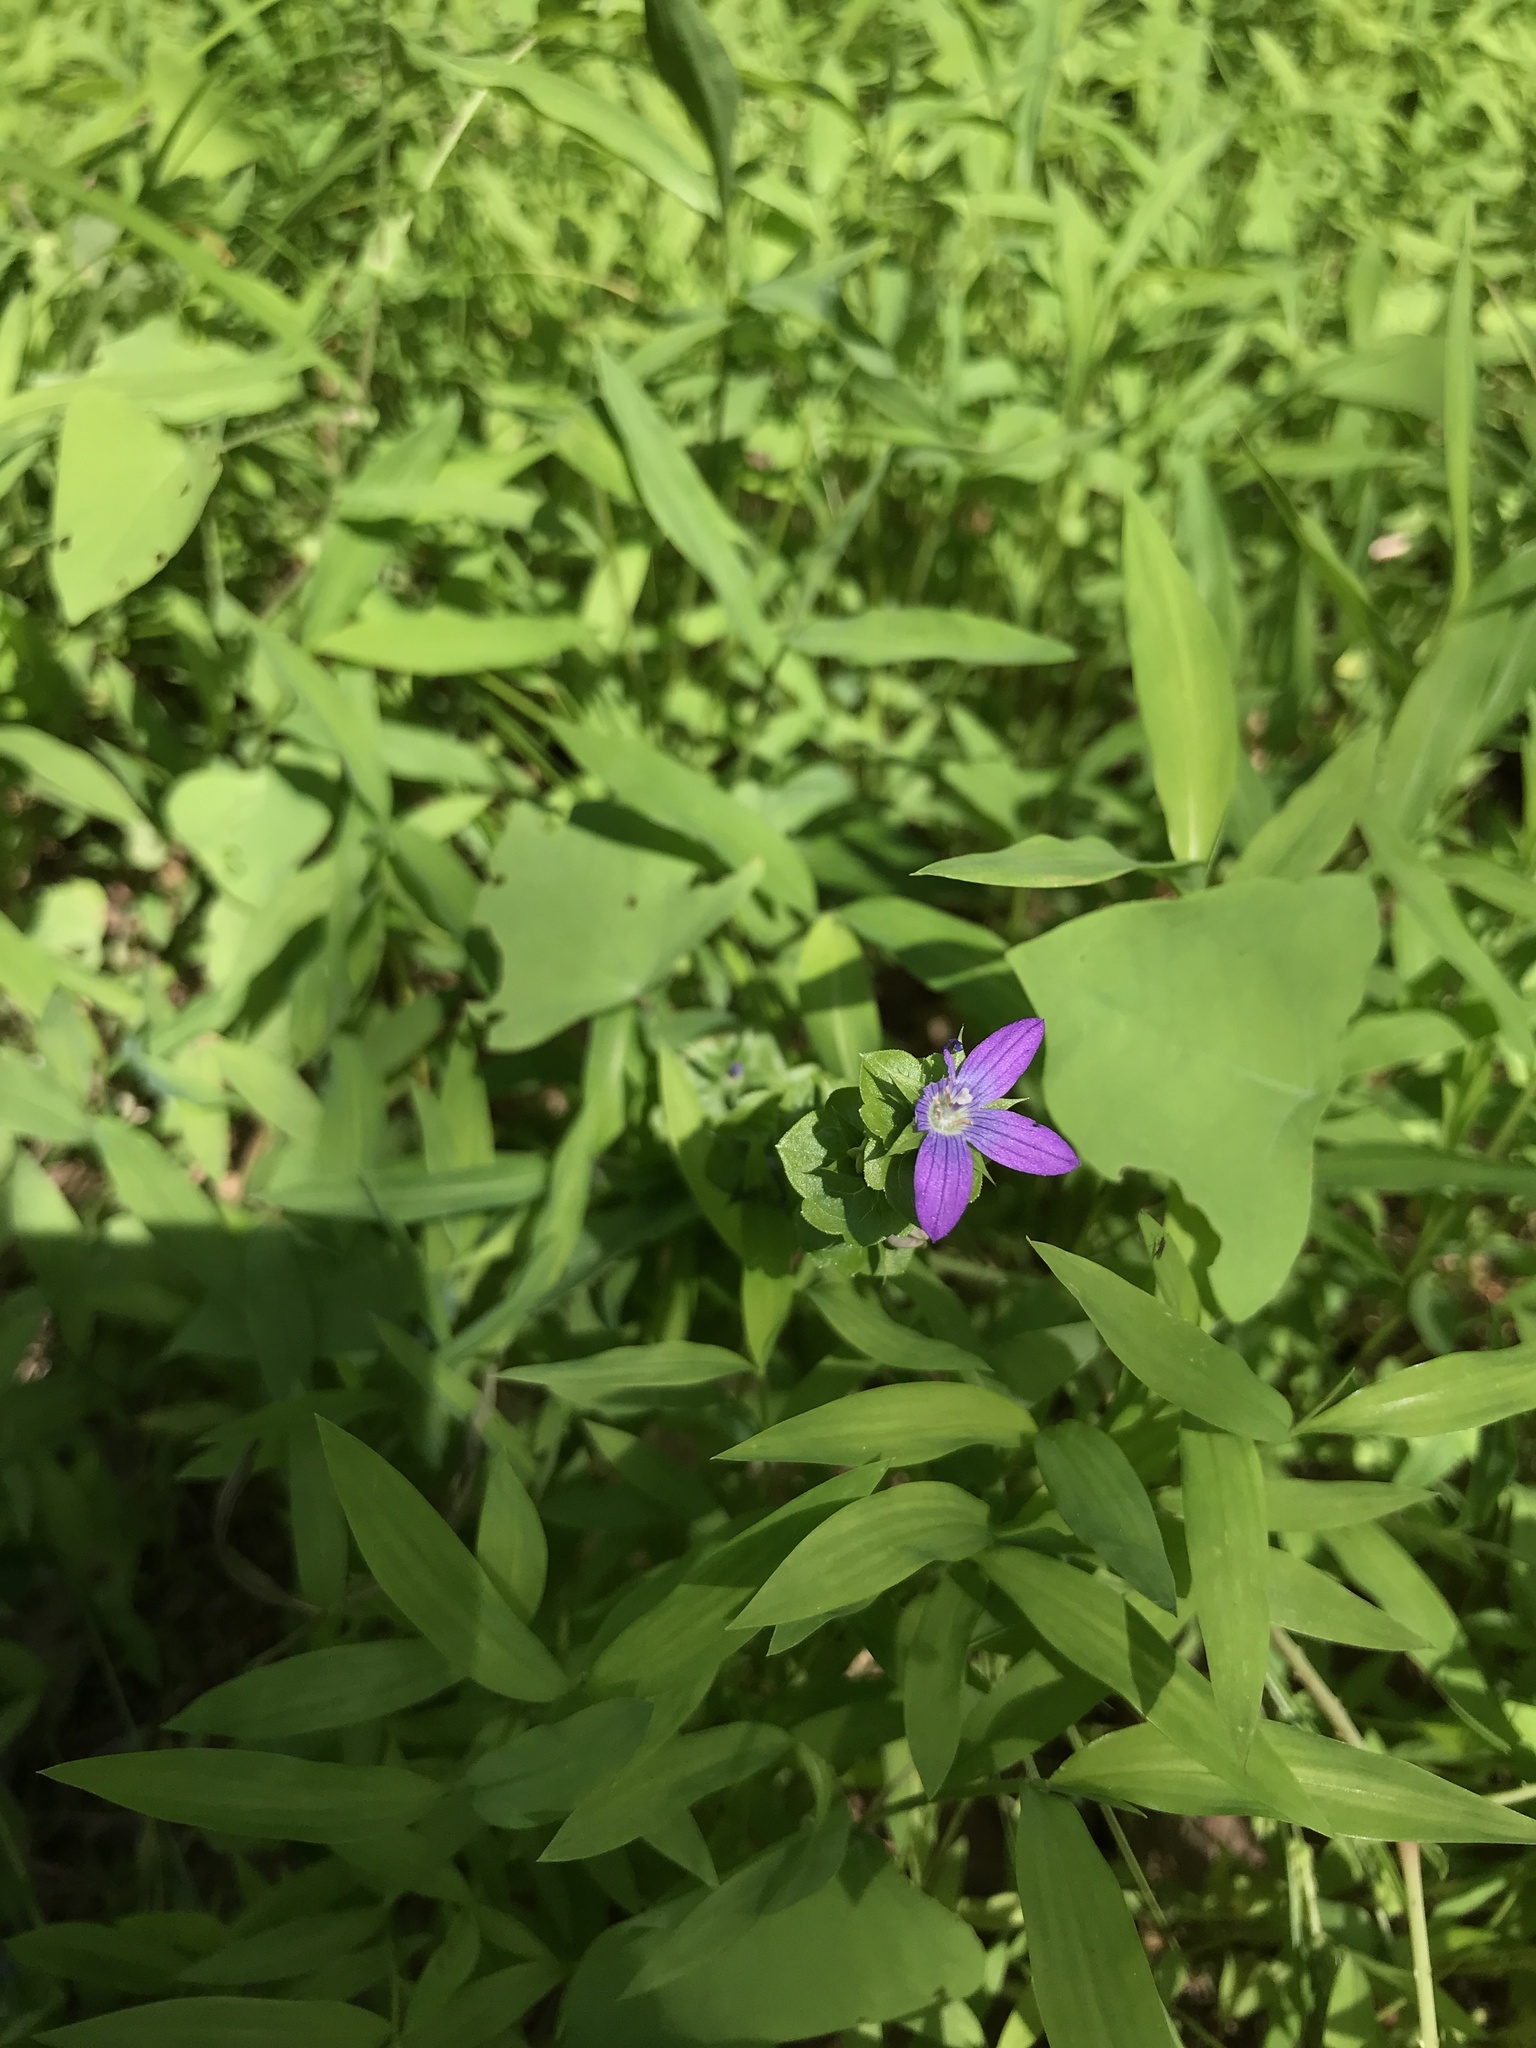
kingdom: Plantae
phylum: Tracheophyta
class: Magnoliopsida
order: Asterales
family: Campanulaceae
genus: Triodanis
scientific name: Triodanis perfoliata
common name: Clasping venus' looking-glass
